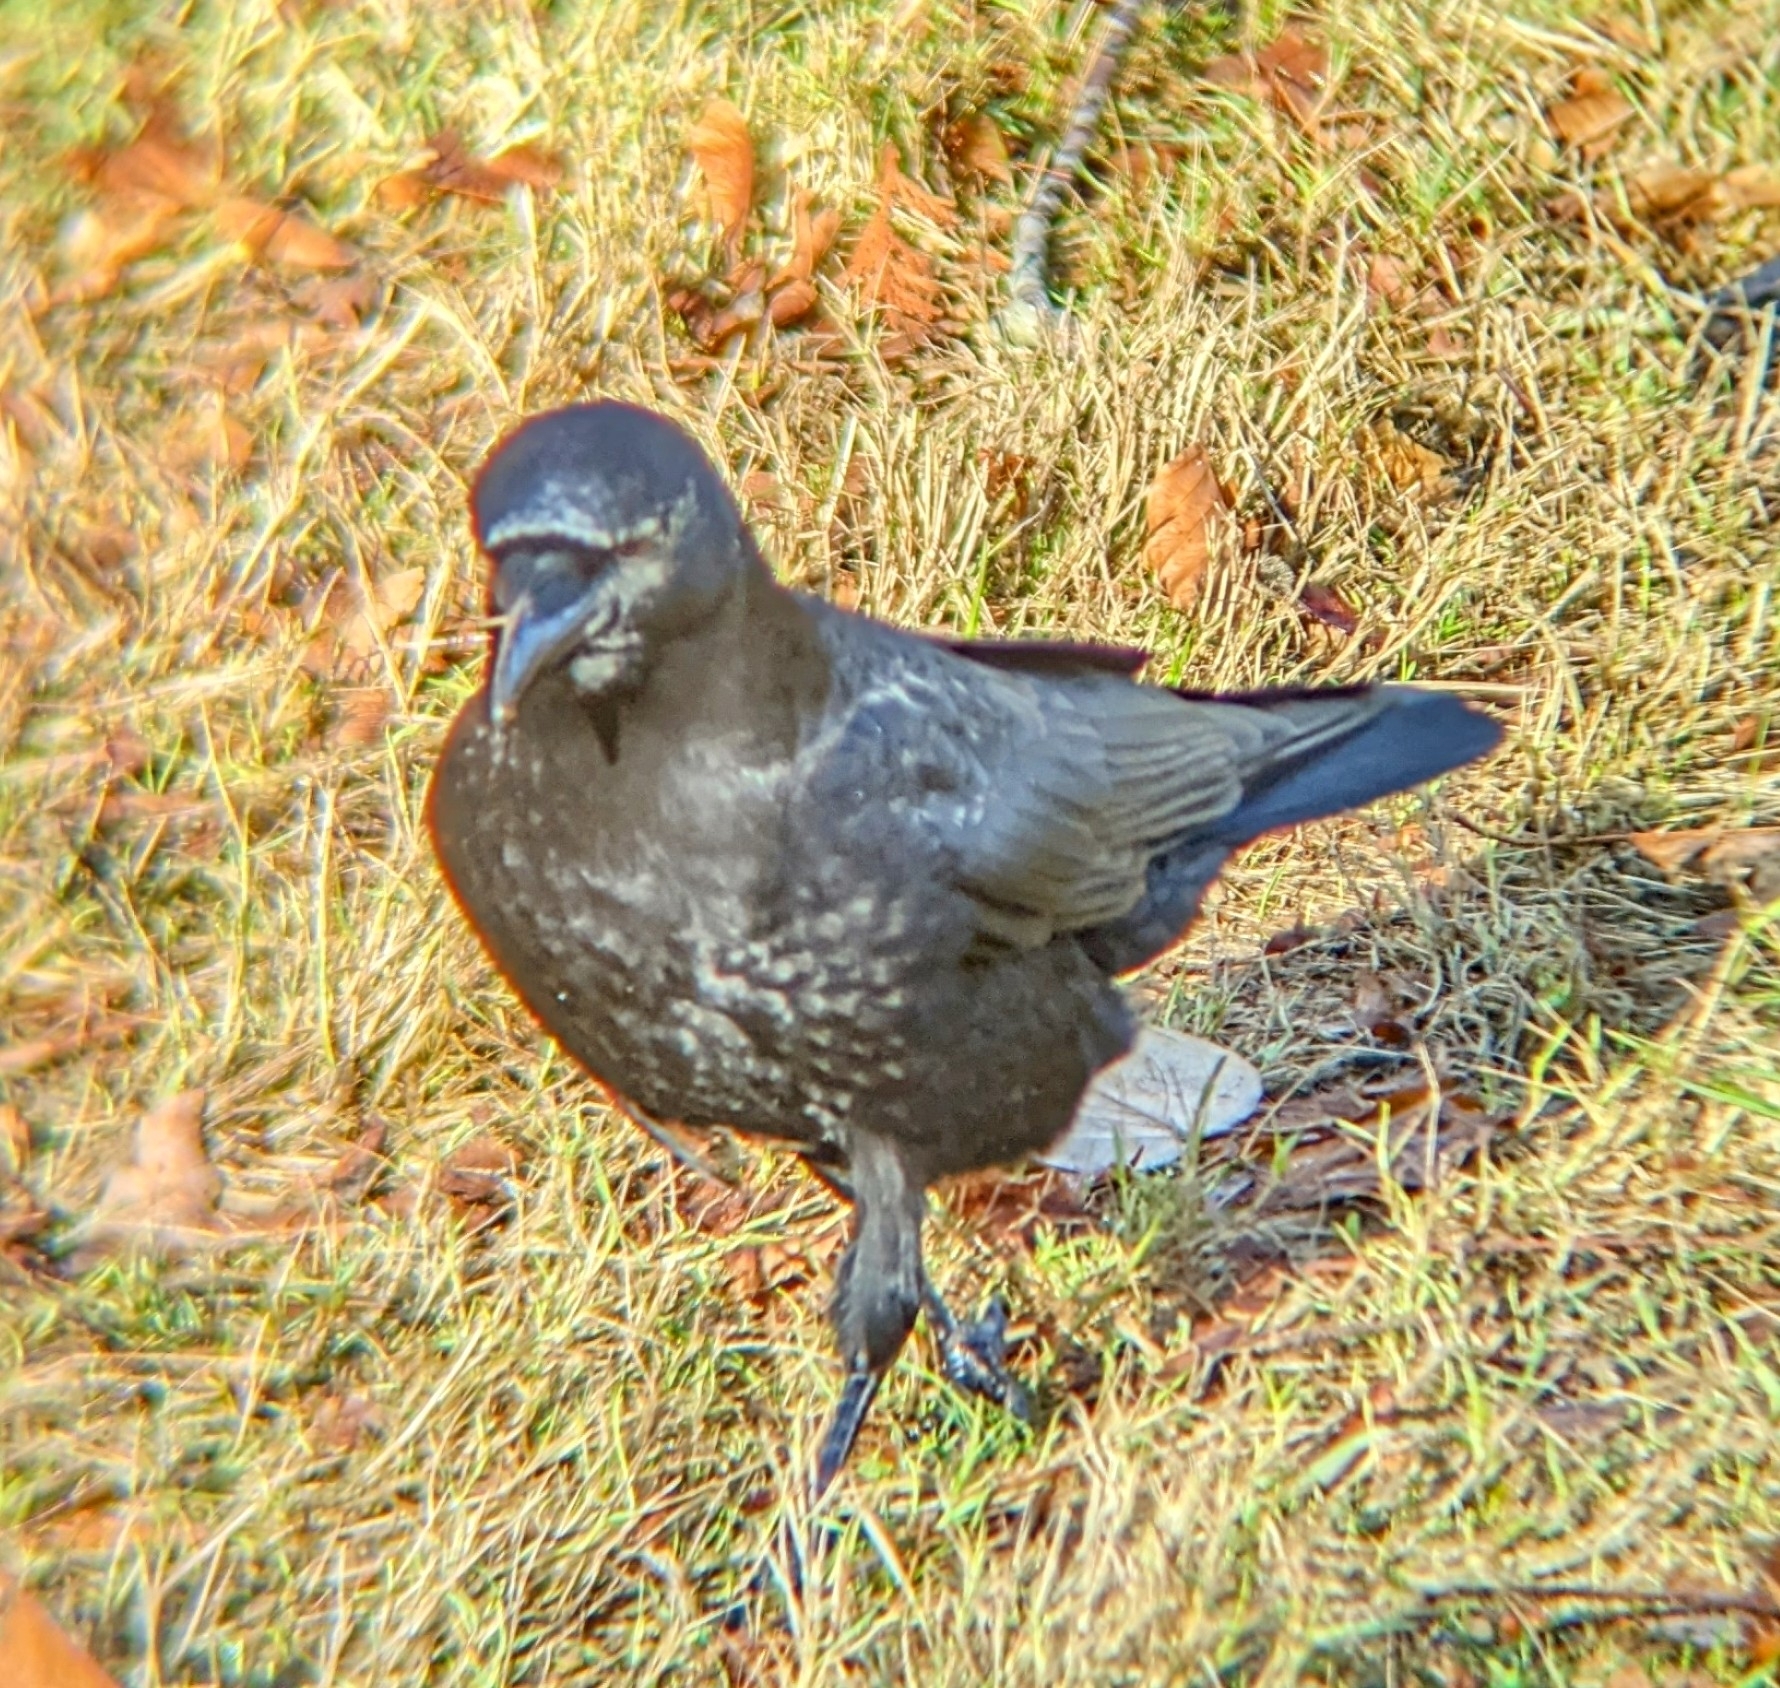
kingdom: Animalia
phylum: Chordata
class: Aves
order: Passeriformes
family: Corvidae
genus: Corvus
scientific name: Corvus brachyrhynchos
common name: American crow
